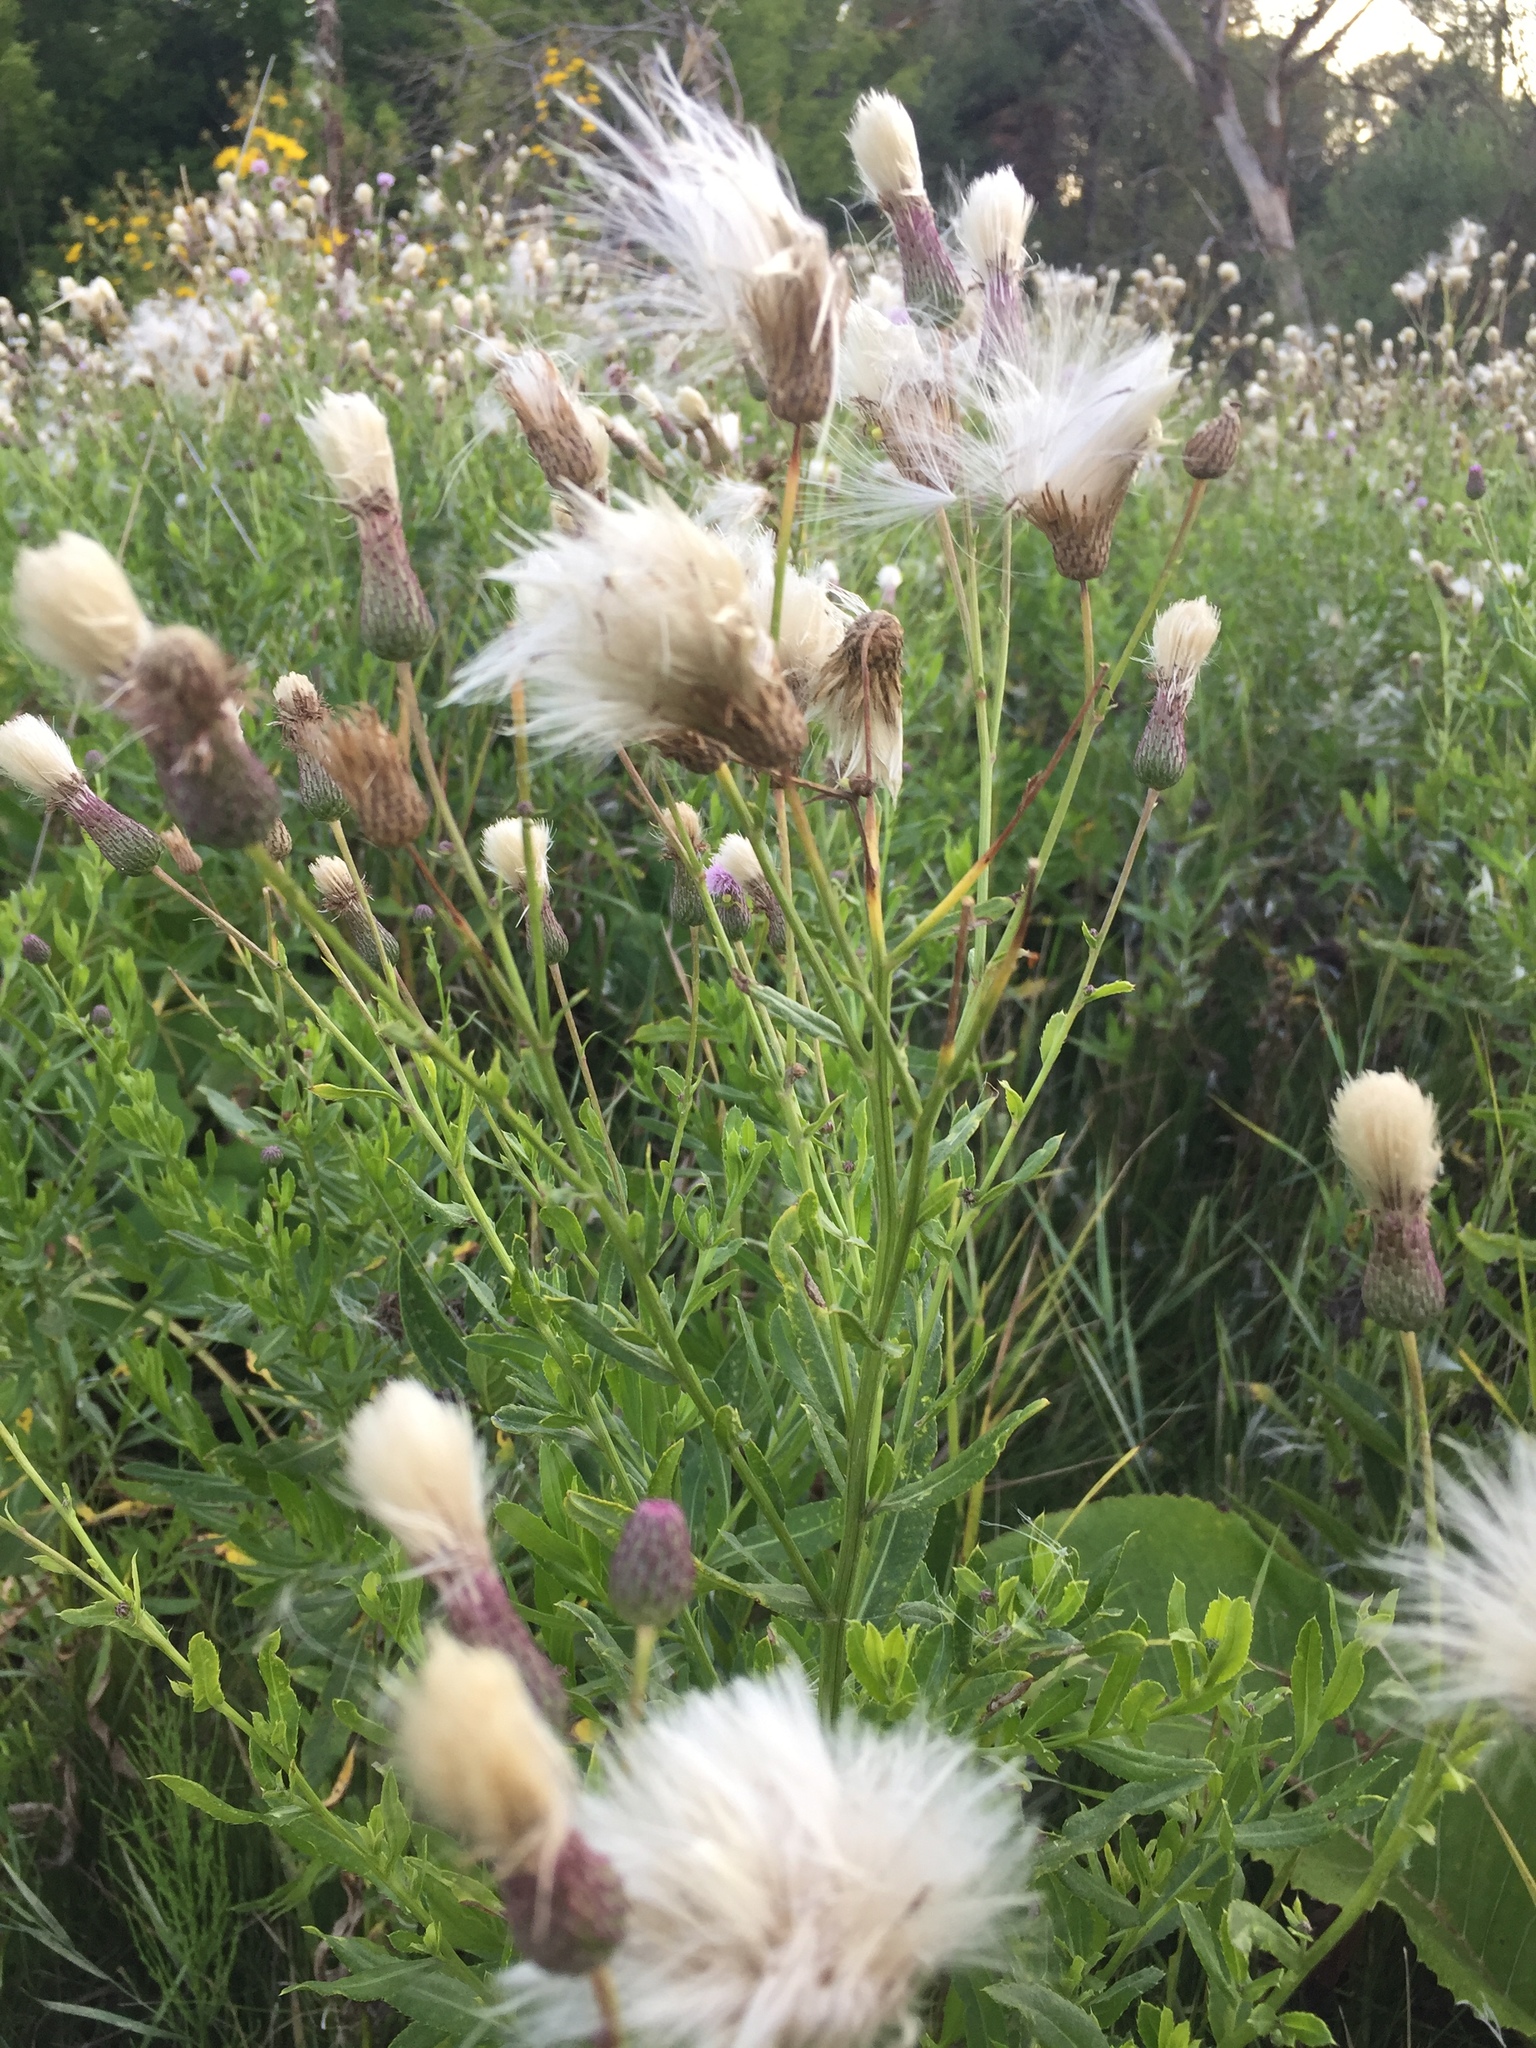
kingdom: Plantae
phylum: Tracheophyta
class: Magnoliopsida
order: Asterales
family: Asteraceae
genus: Cirsium
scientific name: Cirsium arvense
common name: Creeping thistle
